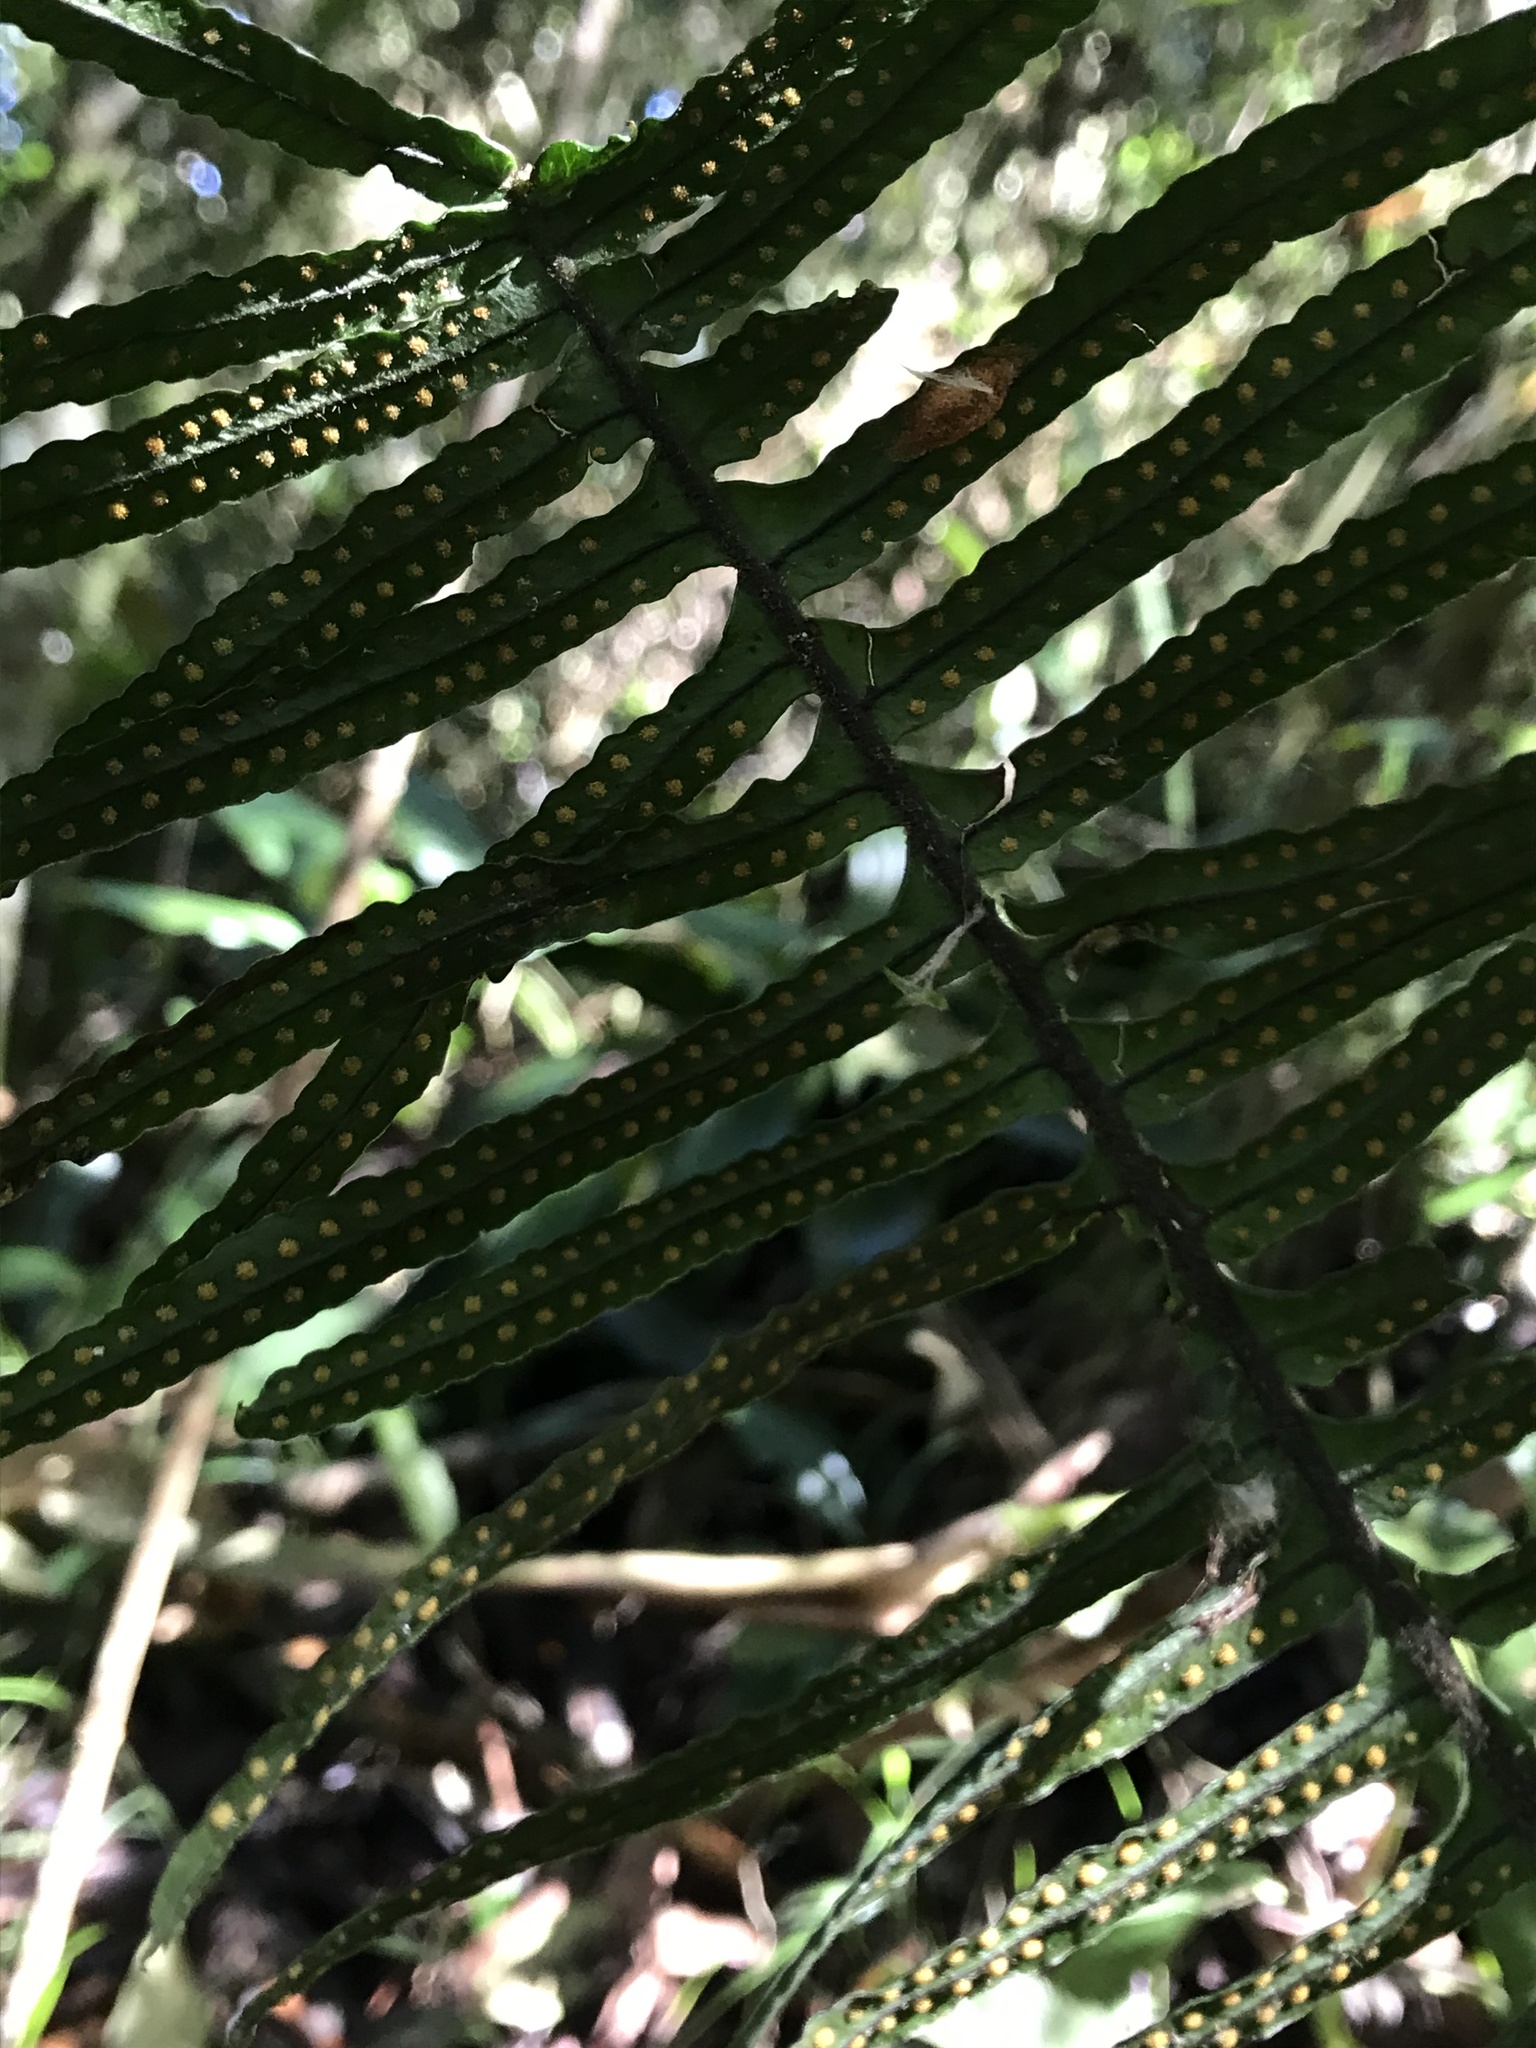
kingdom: Plantae
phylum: Tracheophyta
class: Polypodiopsida
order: Polypodiales
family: Polypodiaceae
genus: Pecluma
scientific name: Pecluma divaricata
